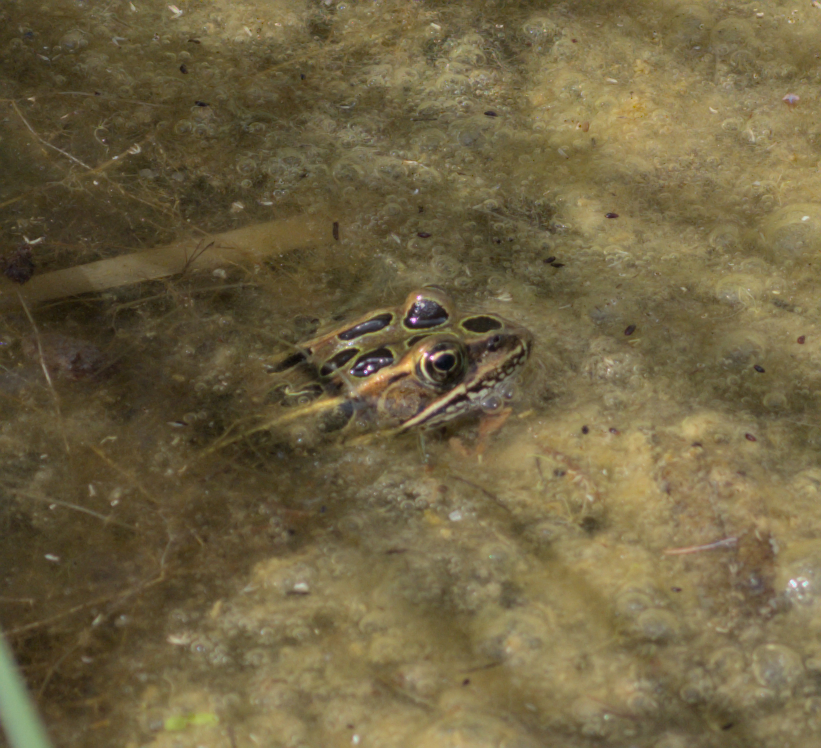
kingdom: Animalia
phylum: Chordata
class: Amphibia
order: Anura
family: Ranidae
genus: Lithobates
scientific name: Lithobates pipiens
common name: Northern leopard frog
